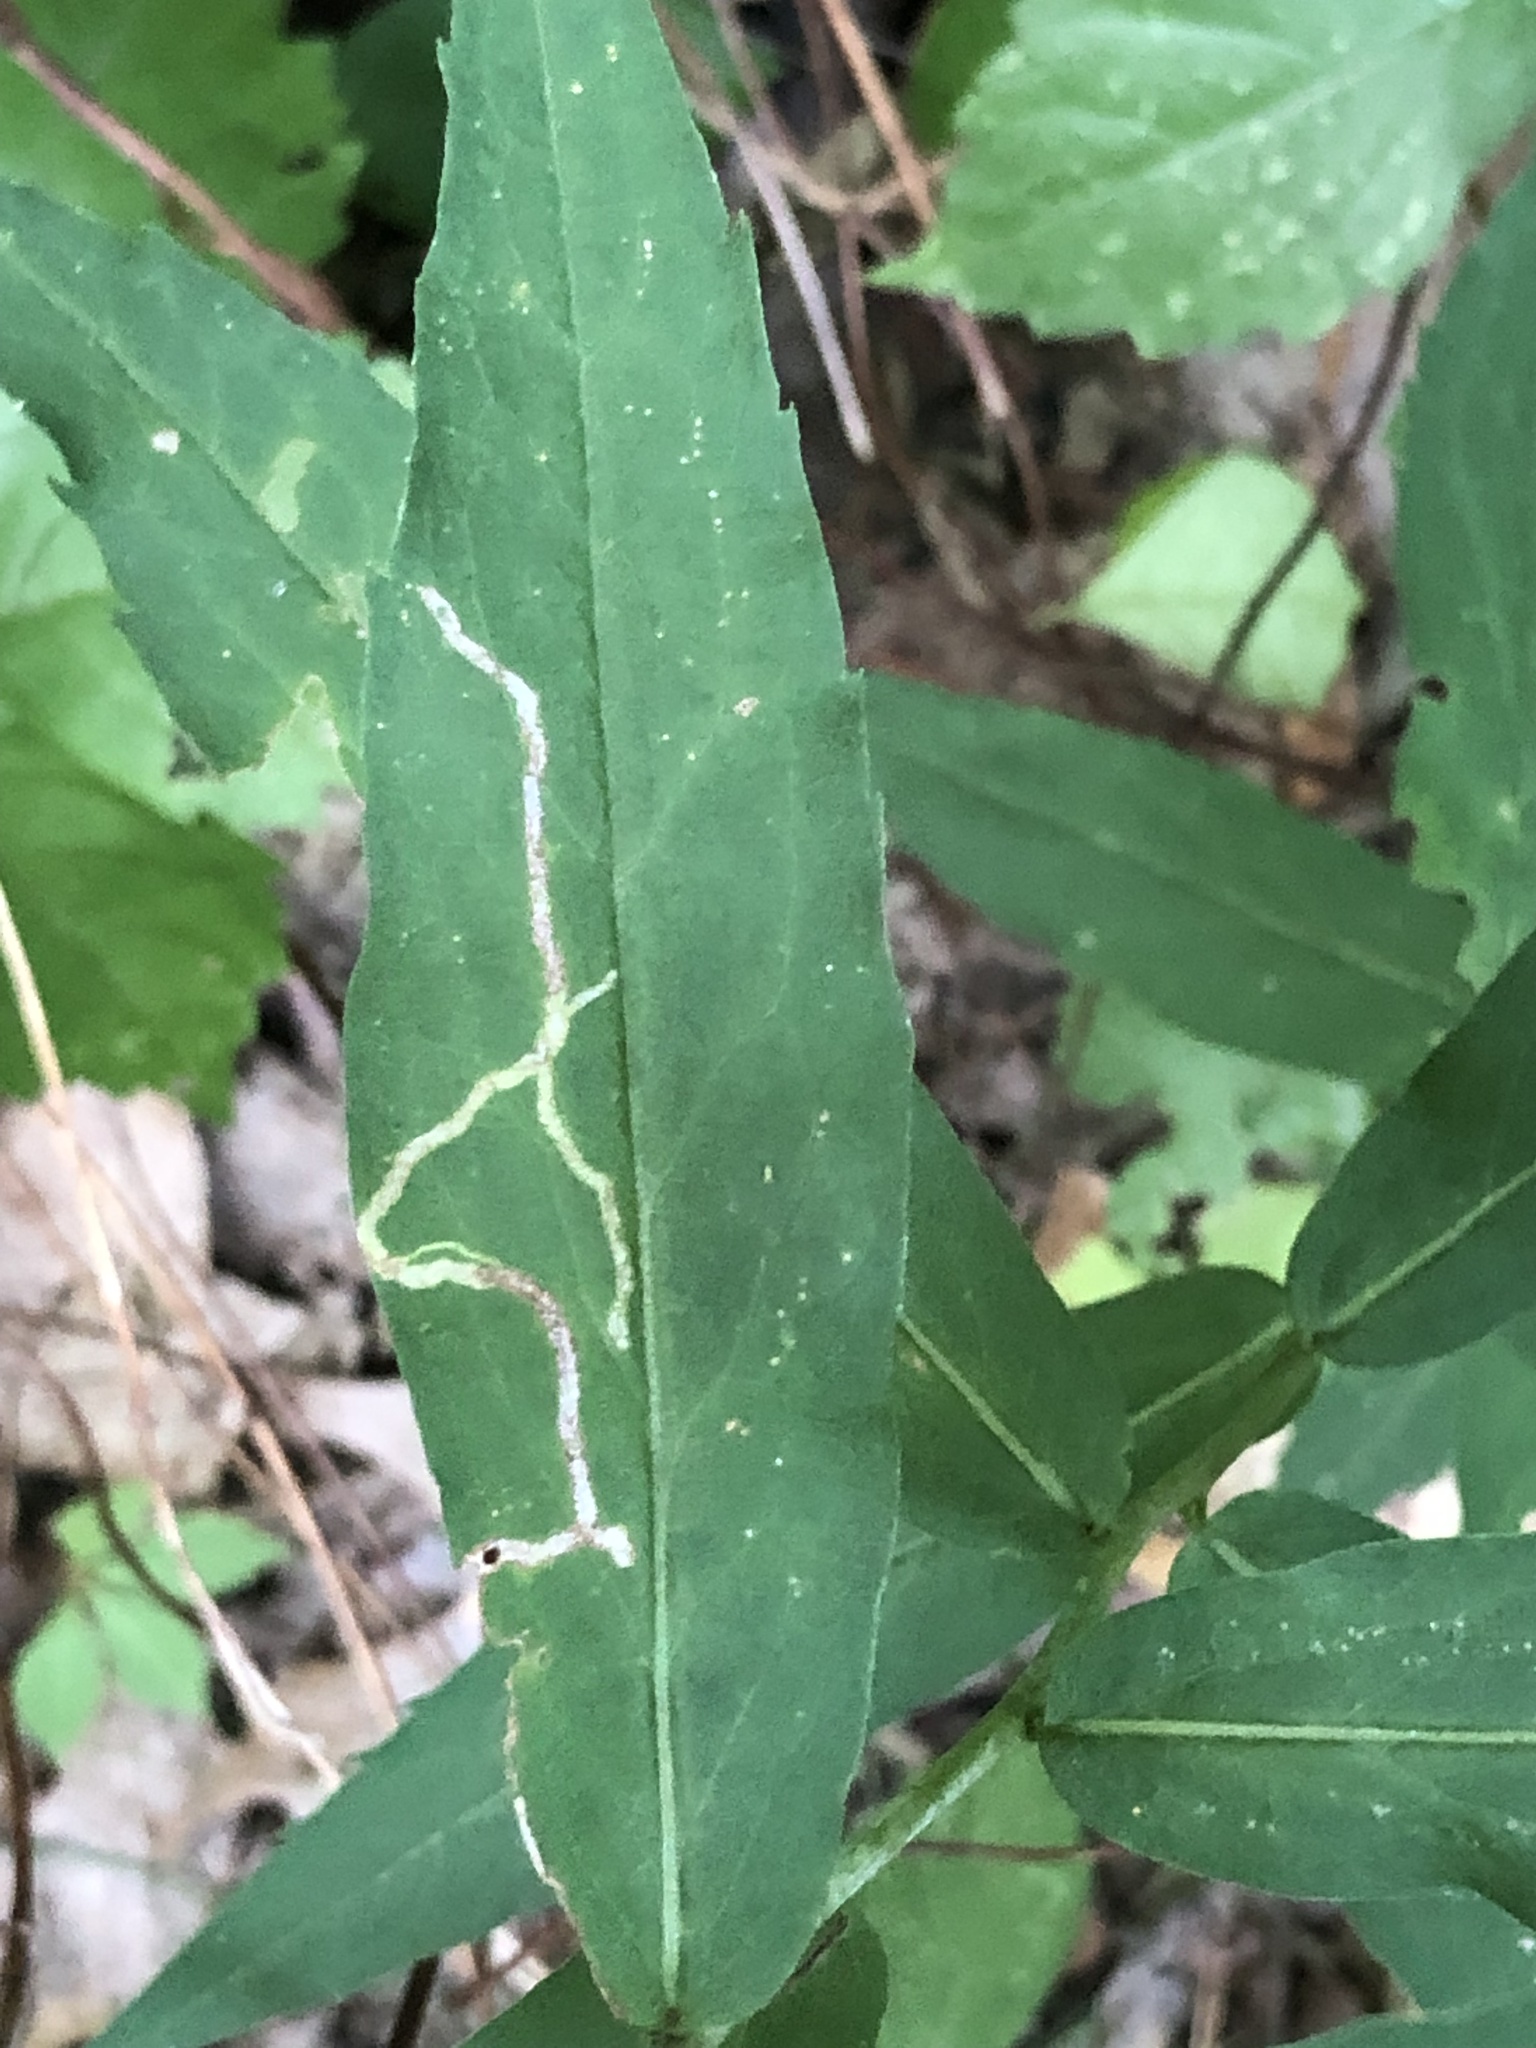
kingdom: Animalia
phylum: Arthropoda
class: Insecta
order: Diptera
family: Agromyzidae
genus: Ophiomyia
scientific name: Ophiomyia maura
